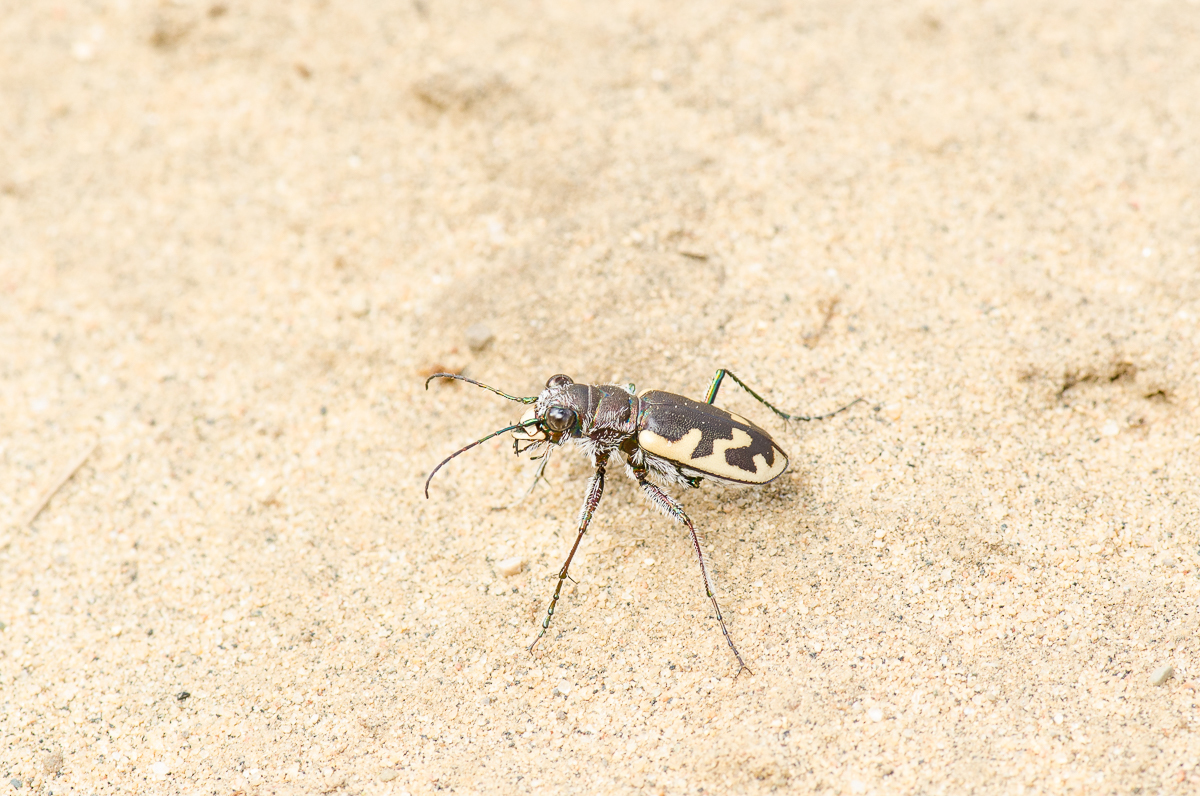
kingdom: Animalia
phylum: Arthropoda
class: Insecta
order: Coleoptera
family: Carabidae
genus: Cicindela
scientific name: Cicindela formosa
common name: Big sand tiger beetle
